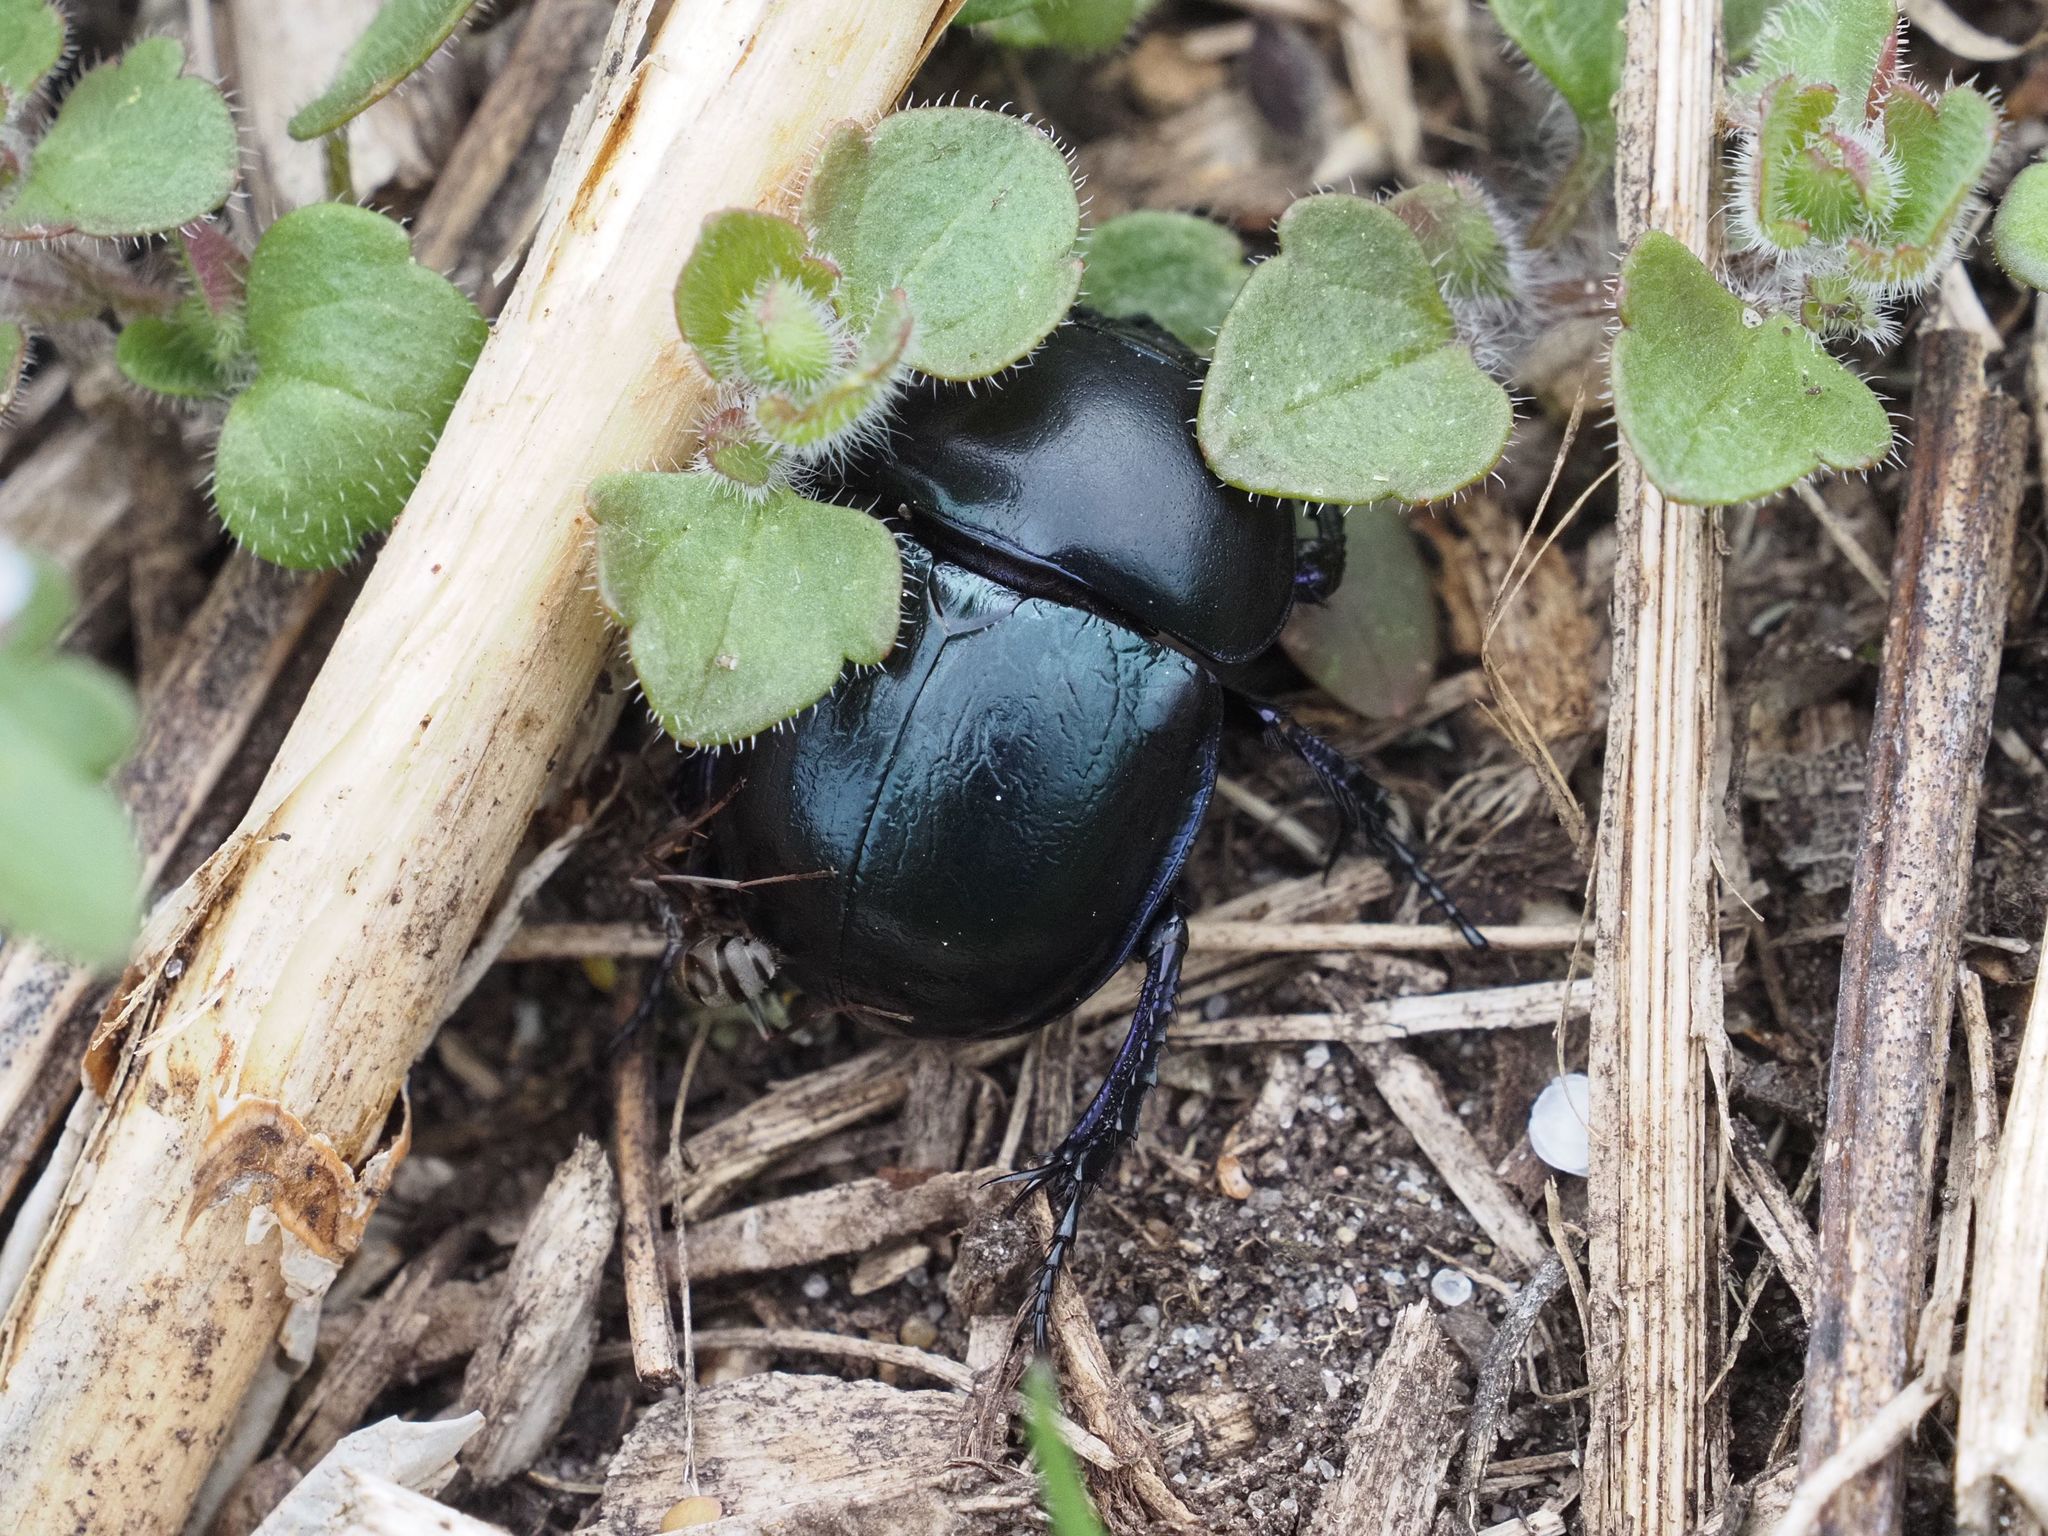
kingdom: Animalia
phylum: Arthropoda
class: Insecta
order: Coleoptera
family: Geotrupidae
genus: Trypocopris
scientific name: Trypocopris vernalis
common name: Spring dumbledor
